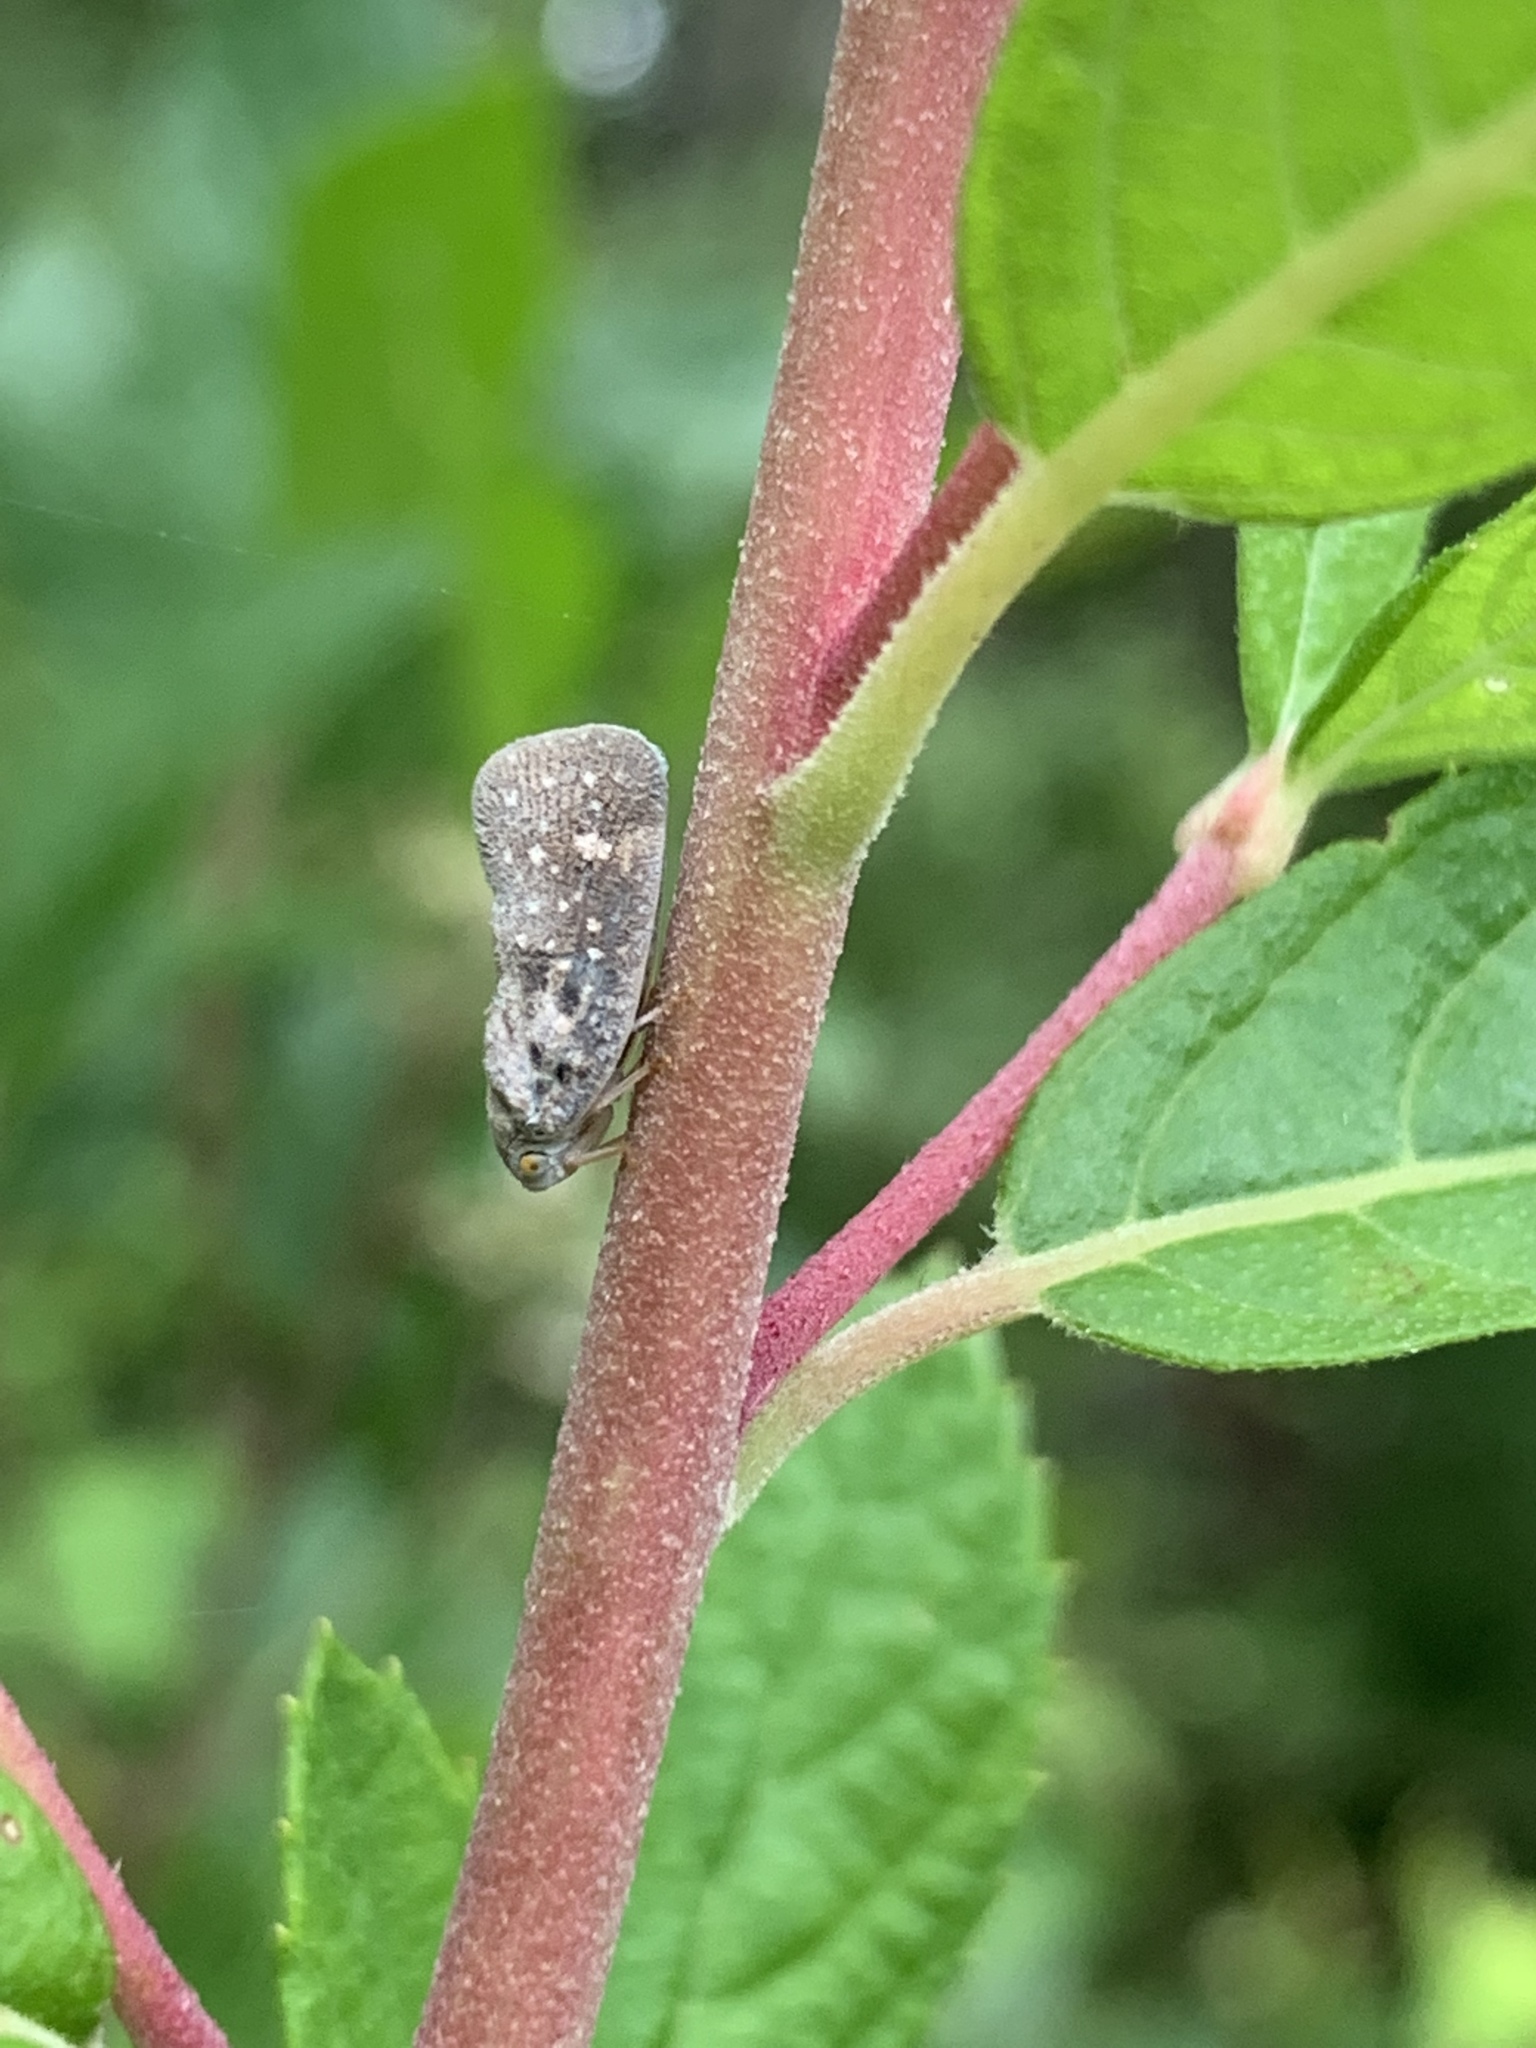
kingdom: Animalia
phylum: Arthropoda
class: Insecta
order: Hemiptera
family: Flatidae
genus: Metcalfa
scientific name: Metcalfa pruinosa
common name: Citrus flatid planthopper
